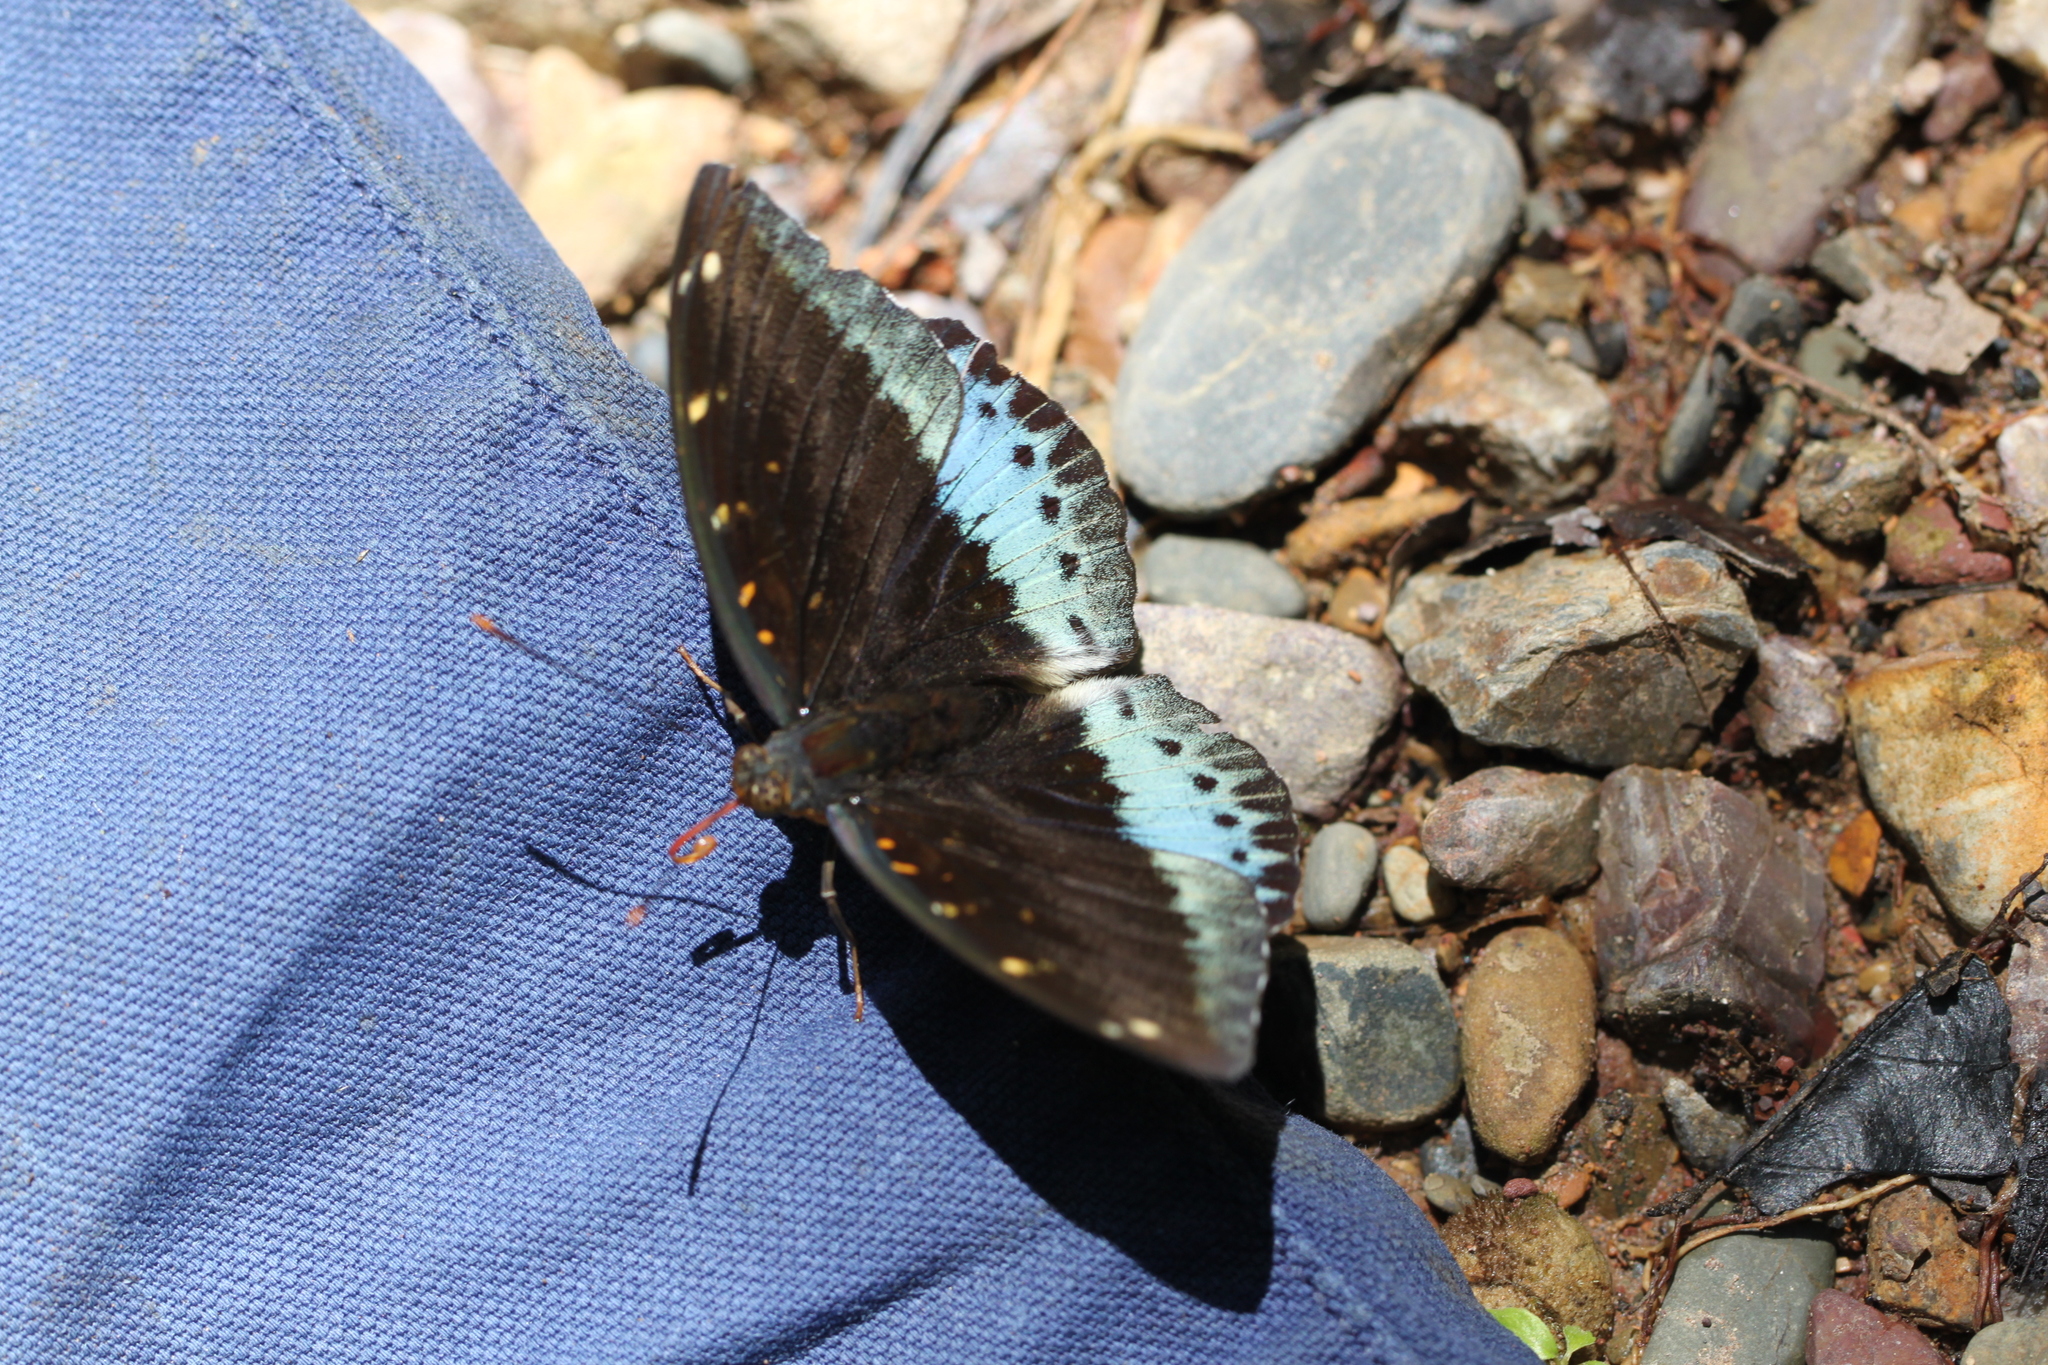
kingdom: Animalia
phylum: Arthropoda
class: Insecta
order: Lepidoptera
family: Nymphalidae
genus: Lexias
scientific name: Lexias pardalis
